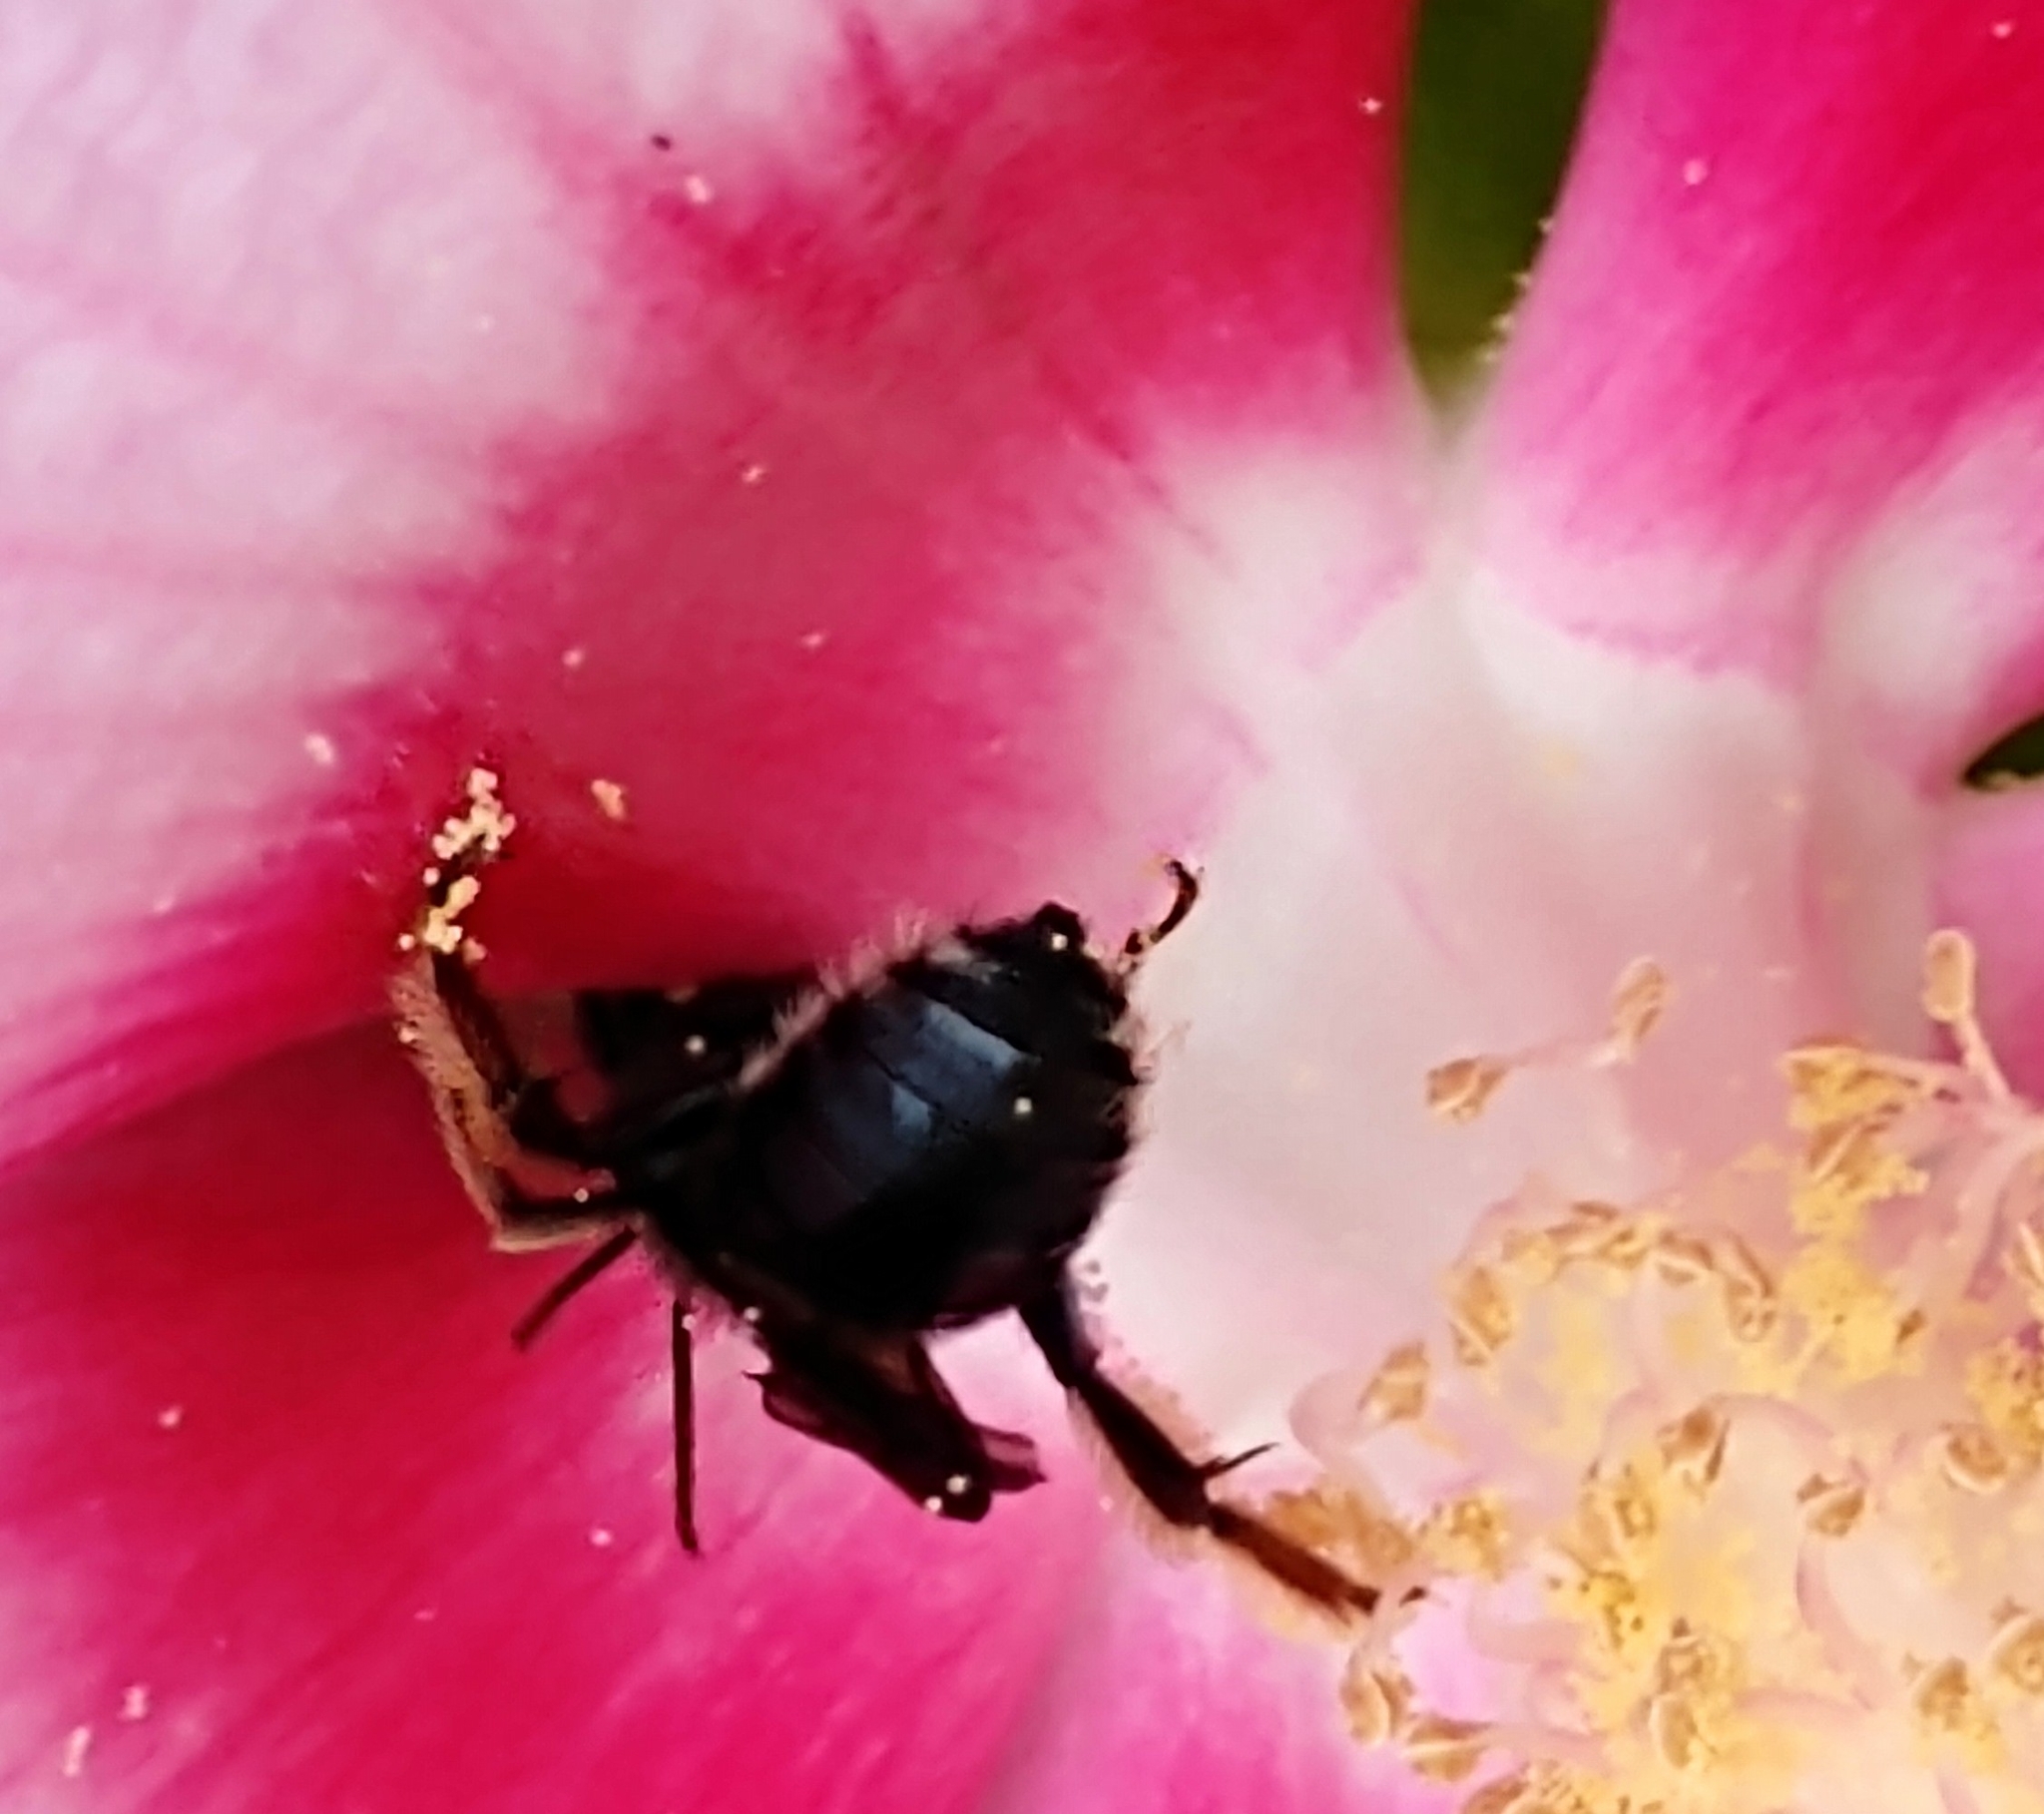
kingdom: Animalia
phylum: Arthropoda
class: Insecta
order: Hymenoptera
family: Apidae
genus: Melissodes
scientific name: Melissodes bimaculatus
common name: Two-spotted long-horned bee
